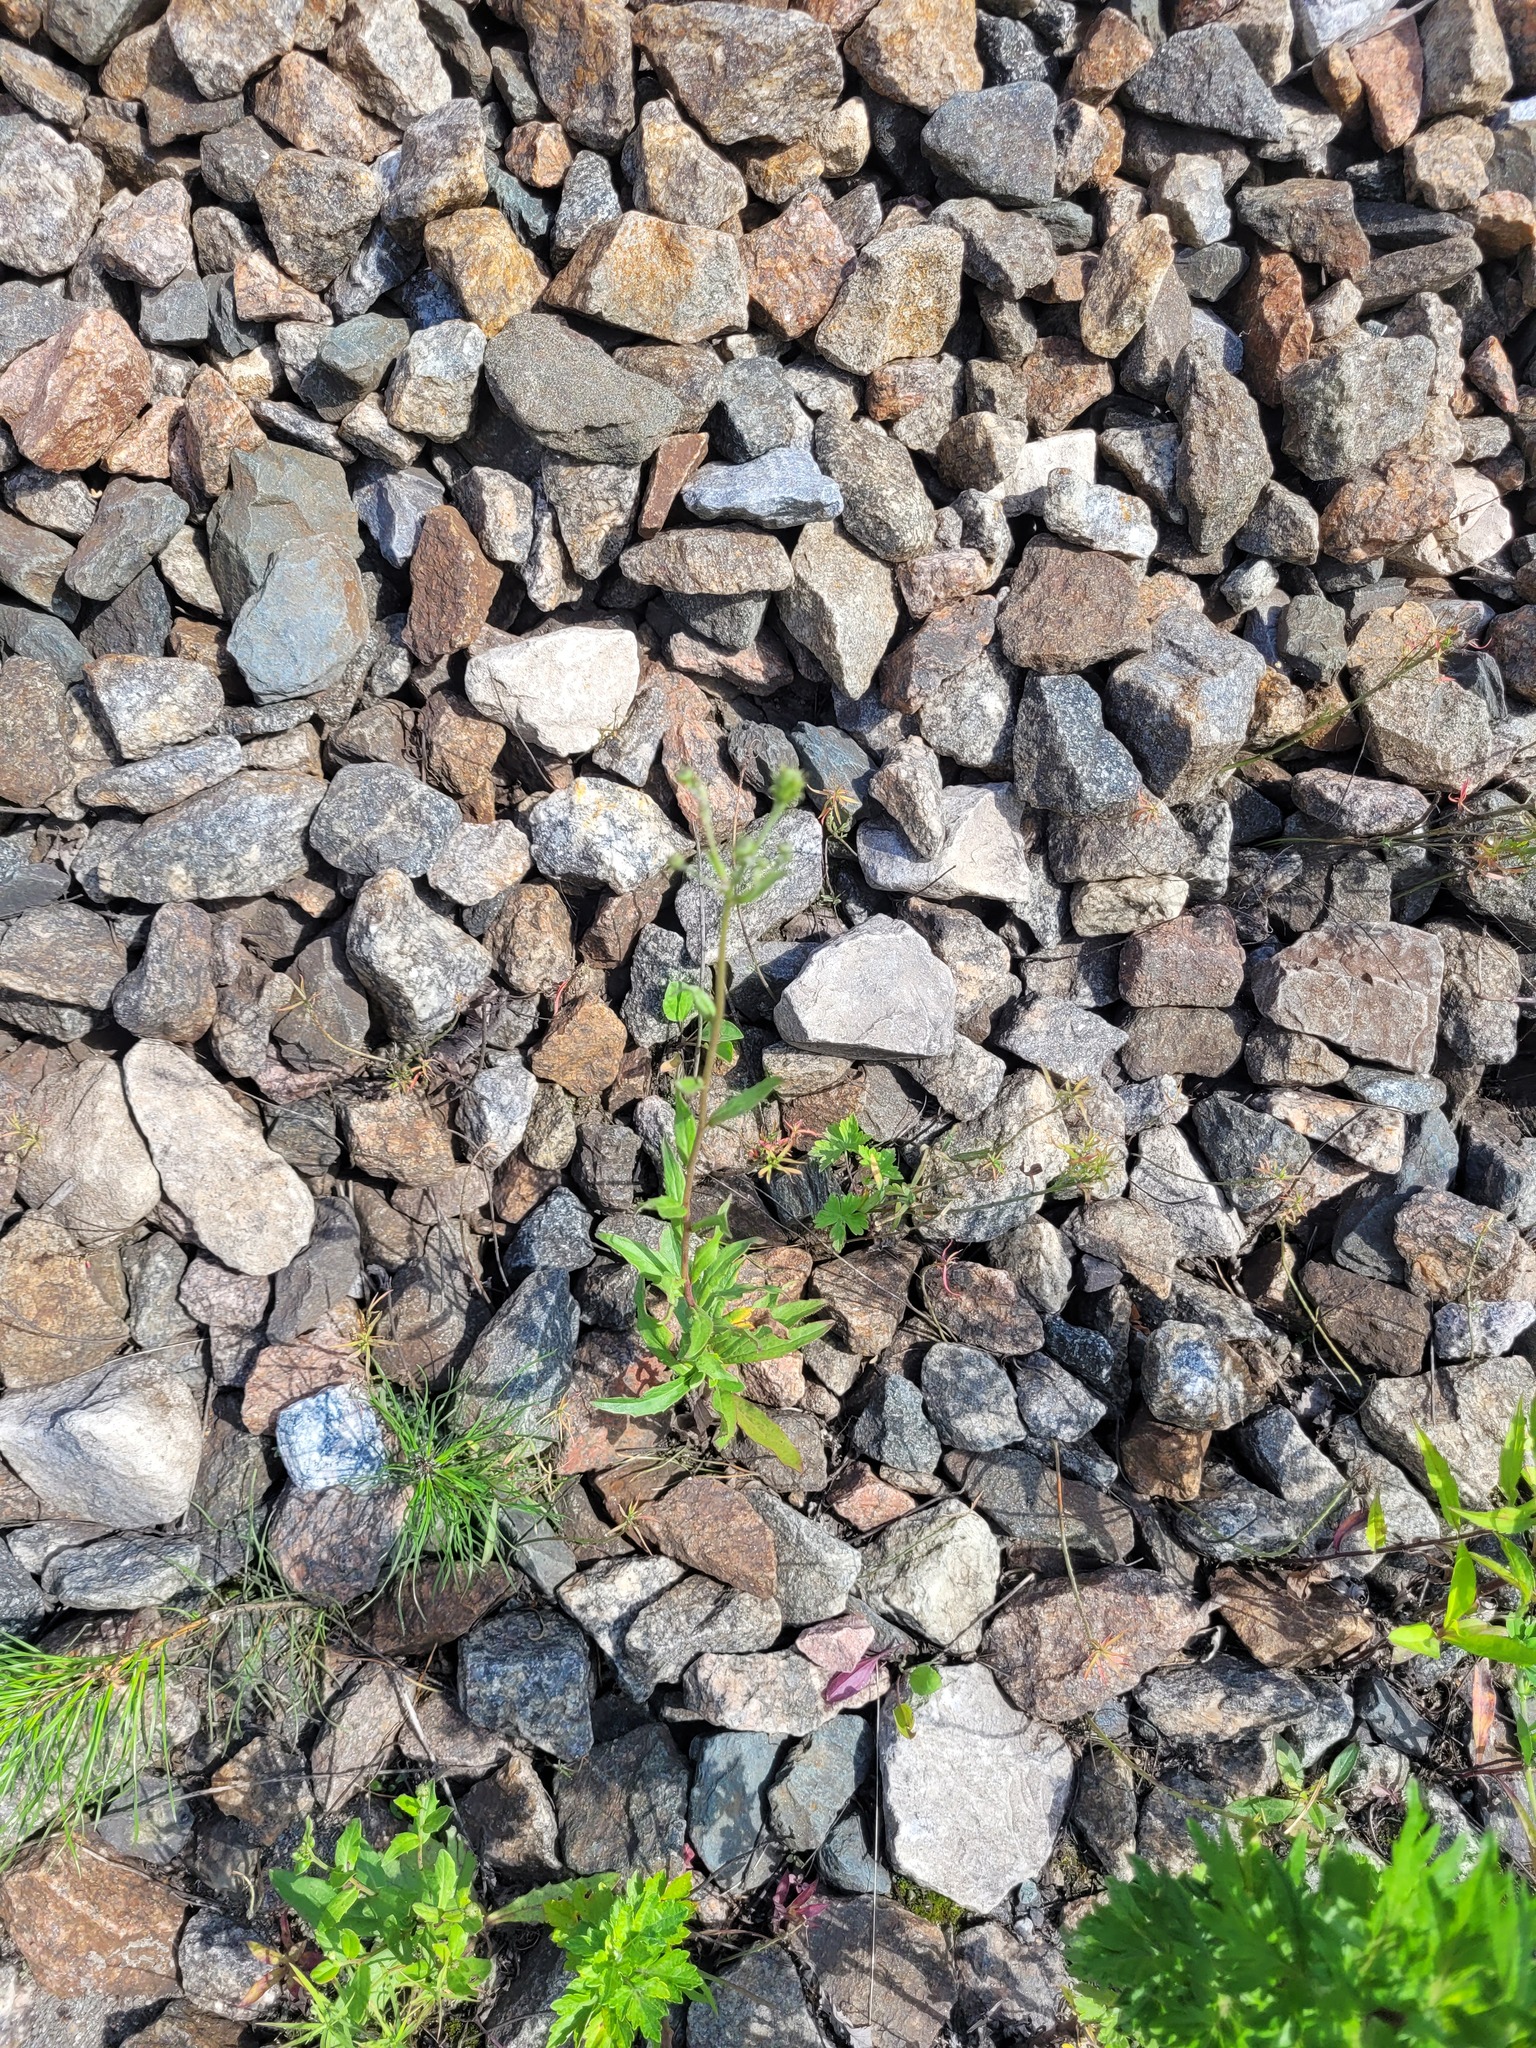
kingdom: Plantae
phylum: Tracheophyta
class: Magnoliopsida
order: Asterales
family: Asteraceae
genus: Hieracium
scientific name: Hieracium umbellatum
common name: Northern hawkweed
